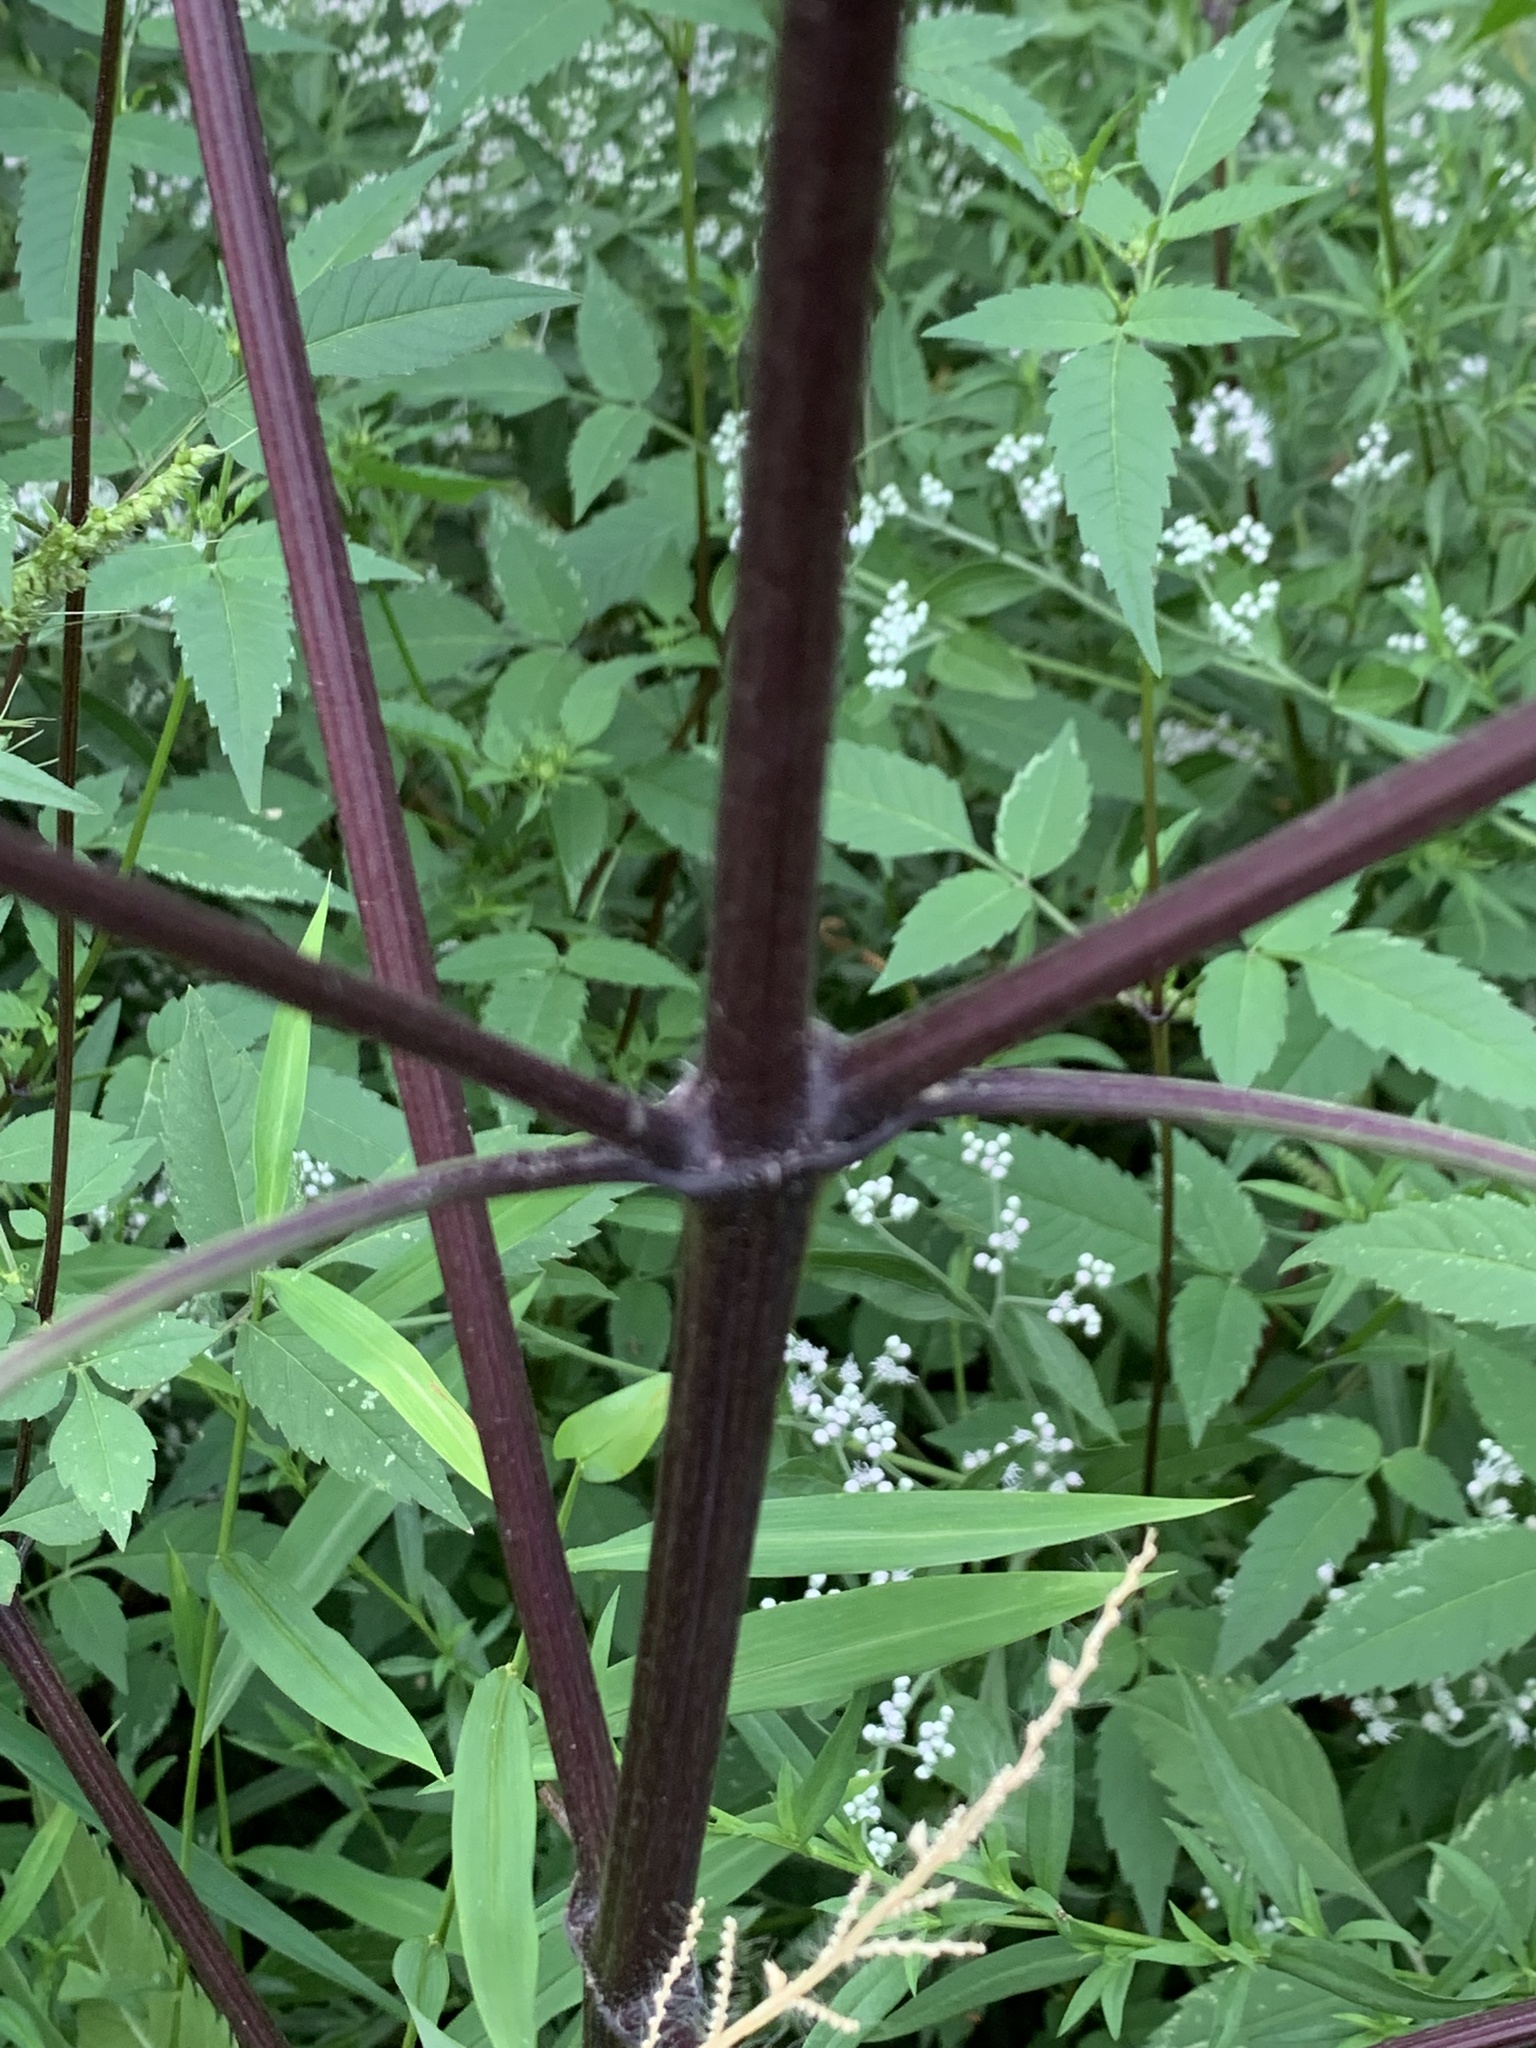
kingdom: Plantae
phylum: Tracheophyta
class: Magnoliopsida
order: Asterales
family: Asteraceae
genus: Bidens
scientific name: Bidens frondosa
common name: Beggarticks
